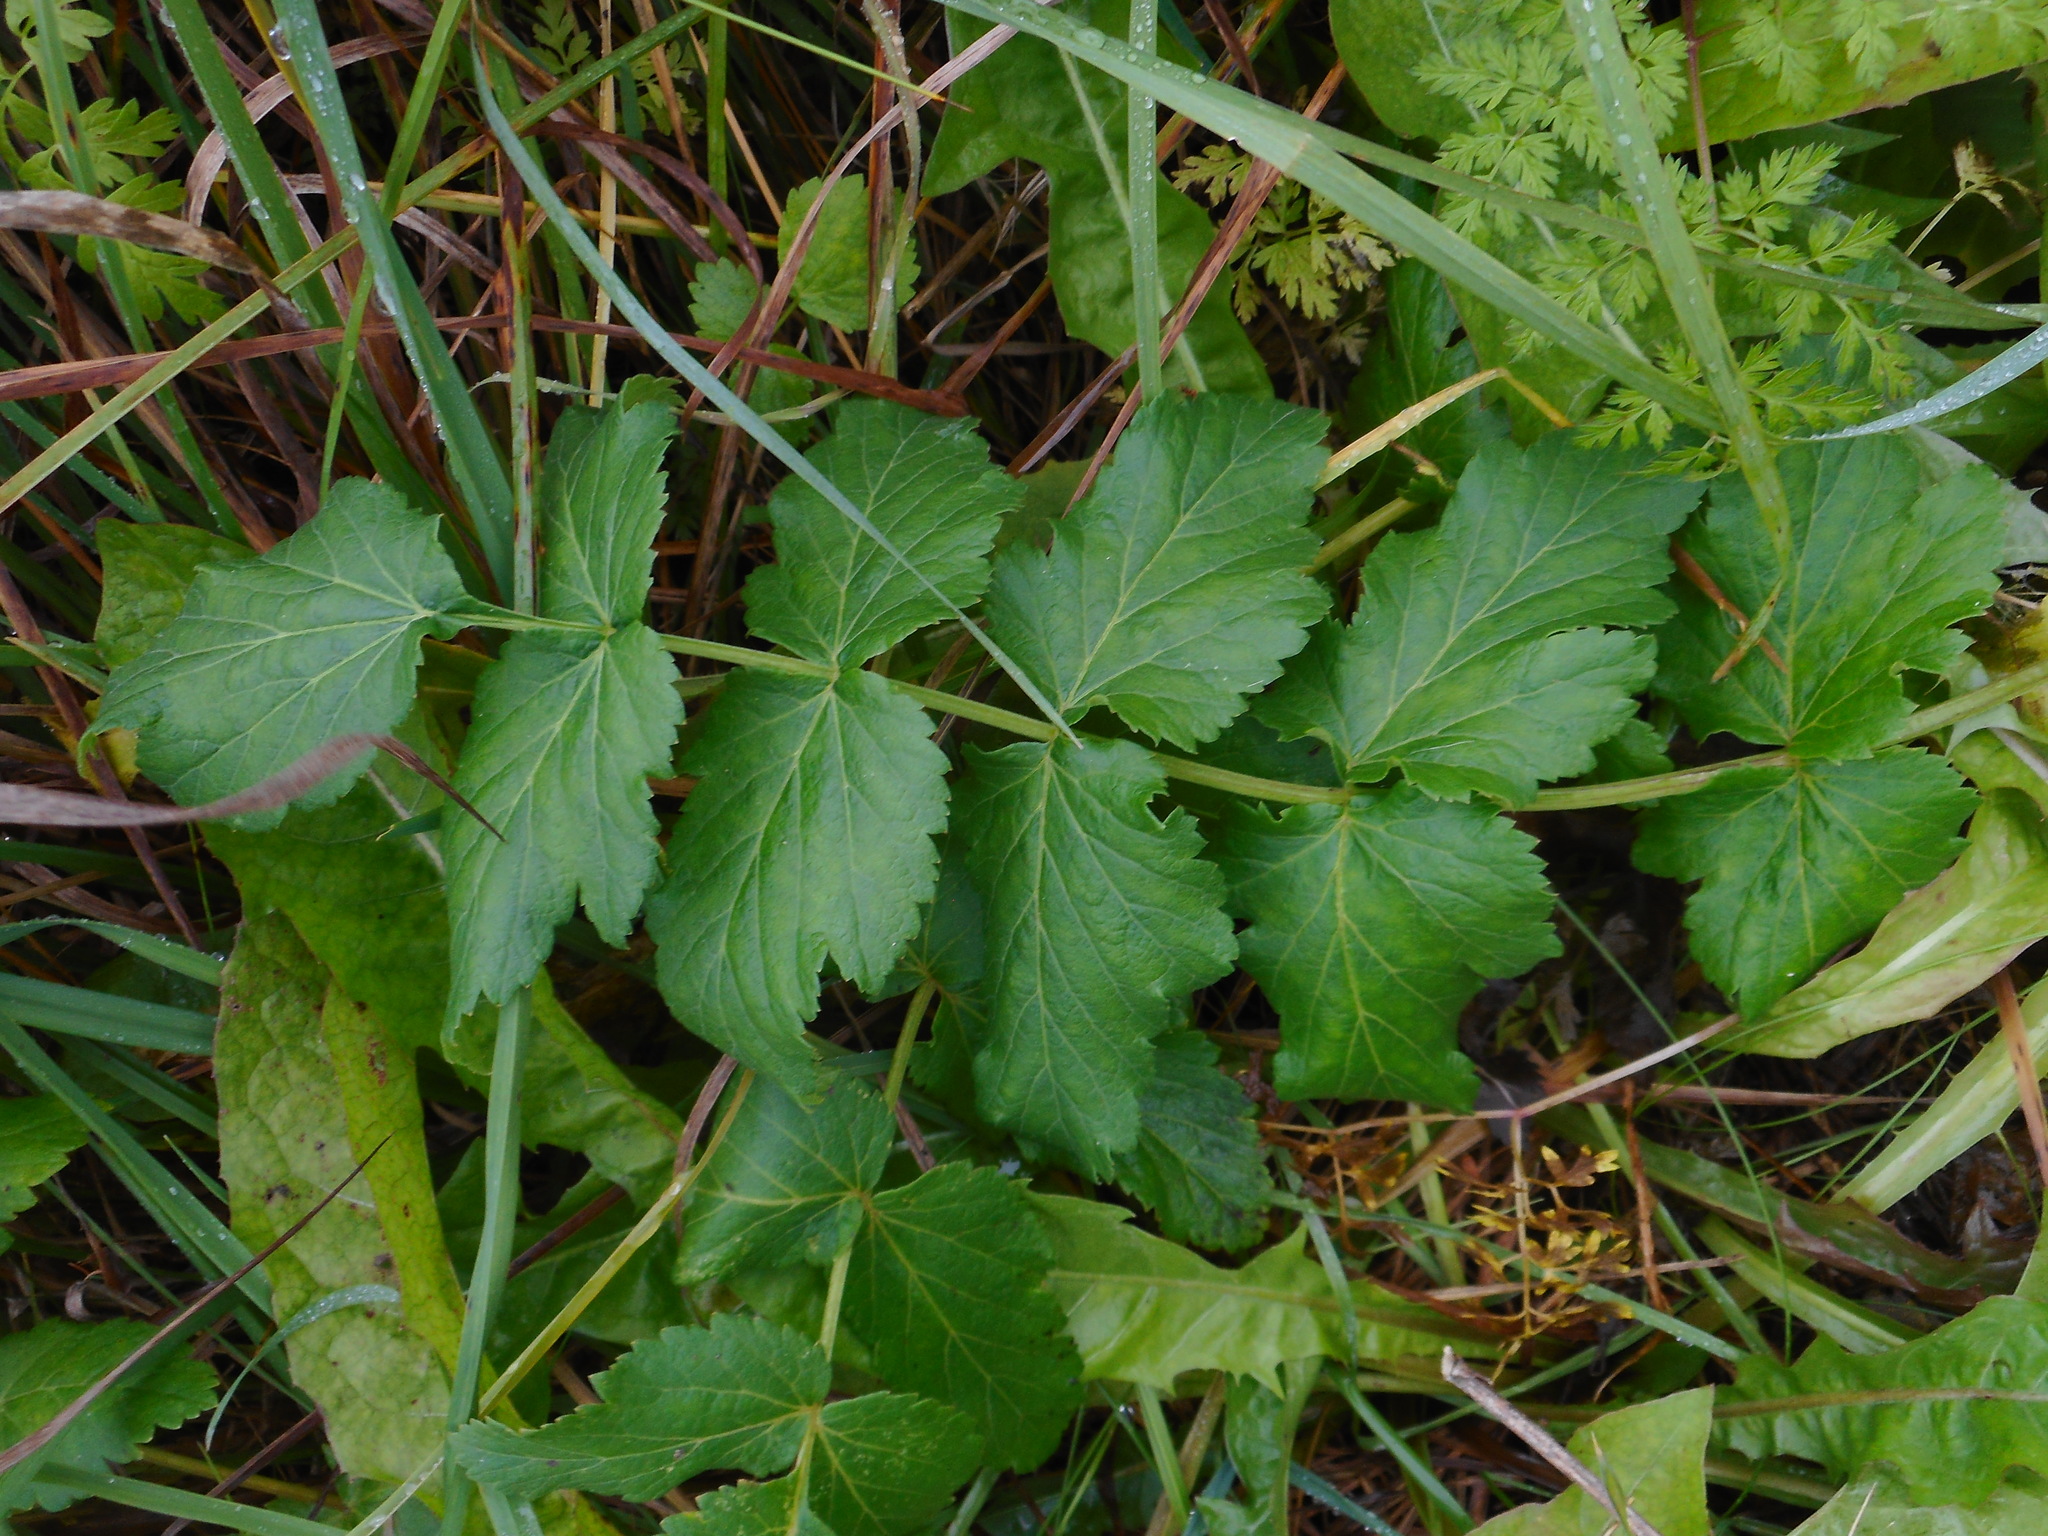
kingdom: Plantae
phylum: Tracheophyta
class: Magnoliopsida
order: Apiales
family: Apiaceae
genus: Pastinaca
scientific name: Pastinaca sativa
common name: Wild parsnip
